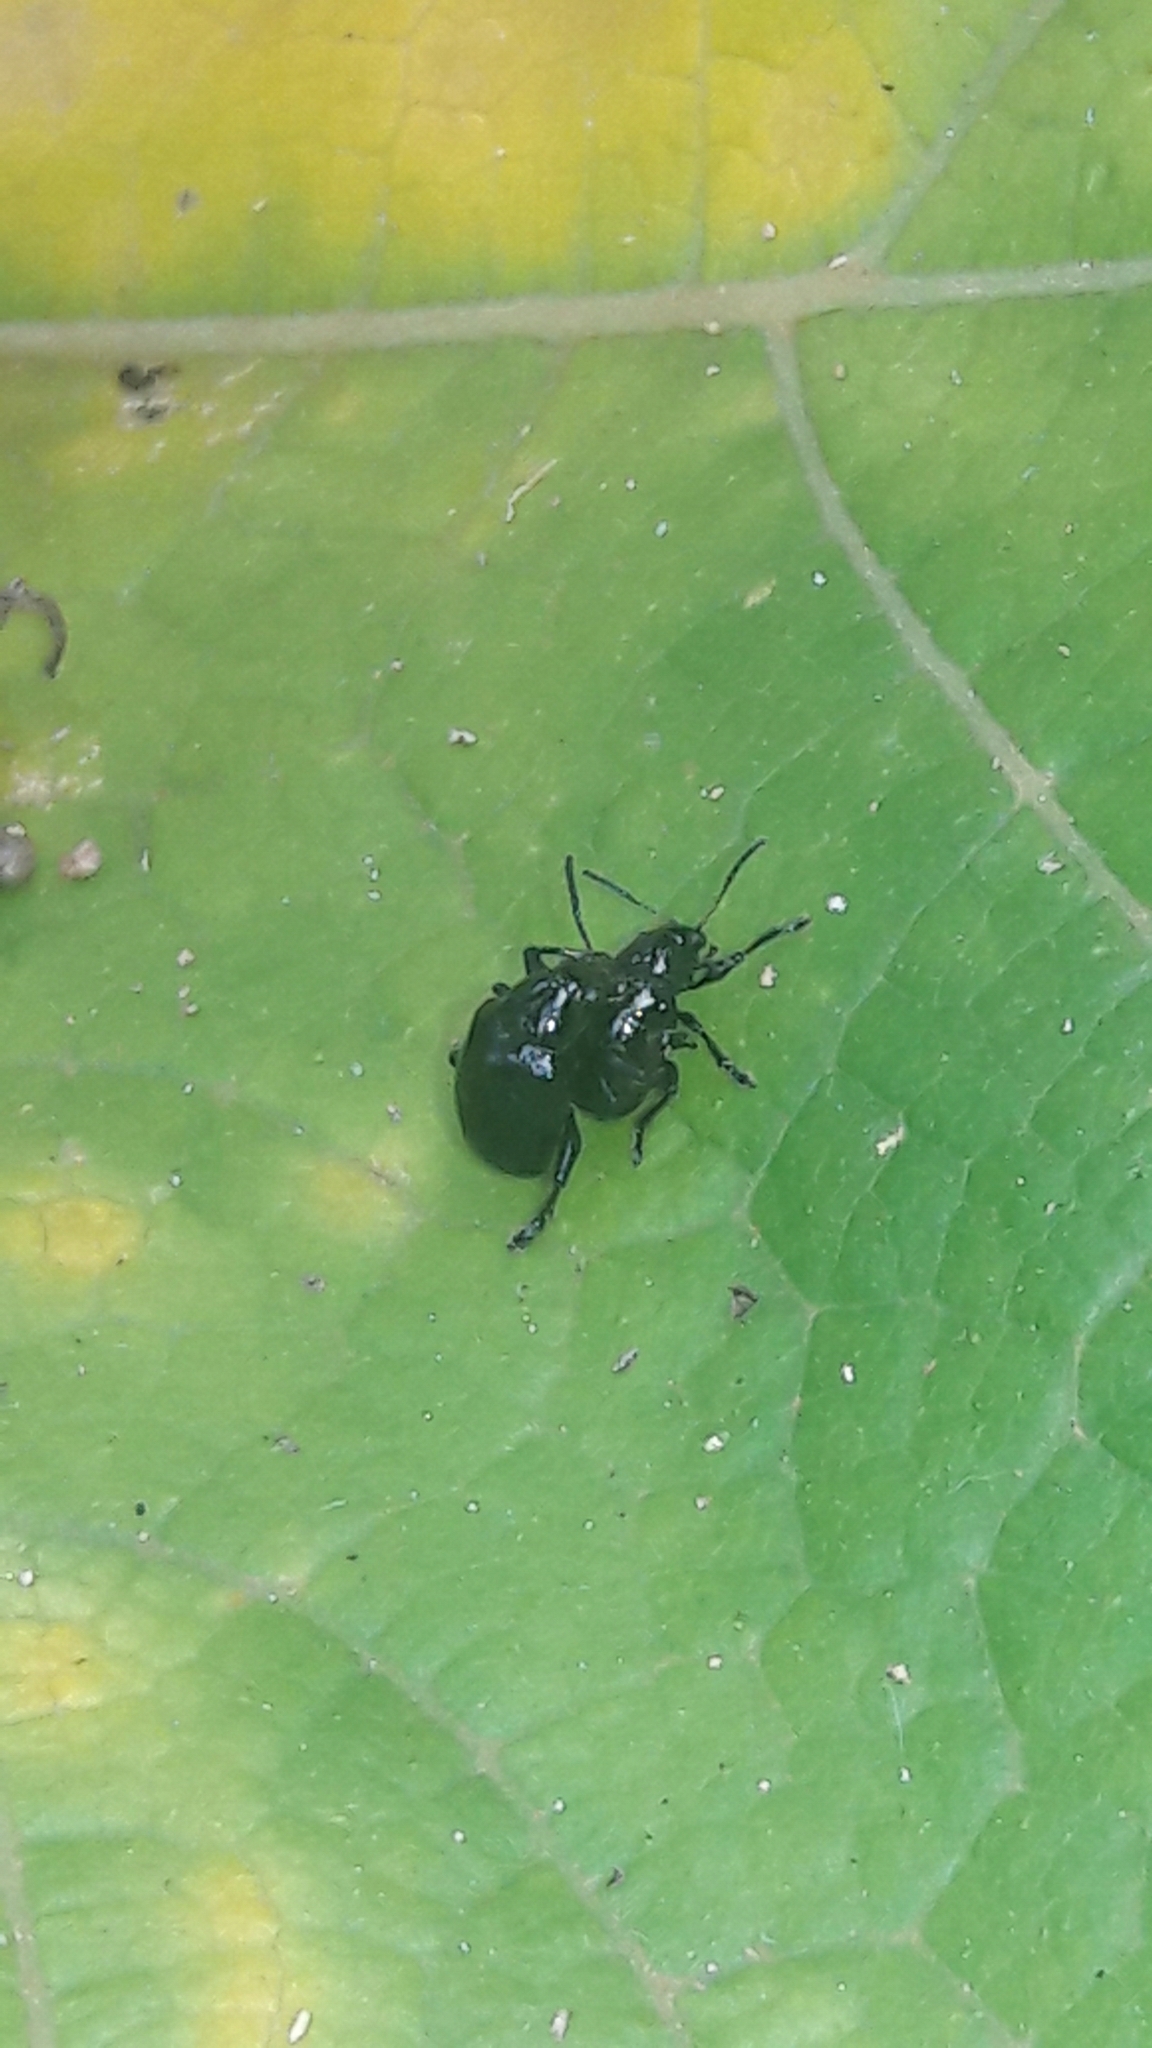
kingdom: Animalia
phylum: Arthropoda
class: Insecta
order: Coleoptera
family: Chrysomelidae
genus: Typophorus
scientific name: Typophorus nigritus
